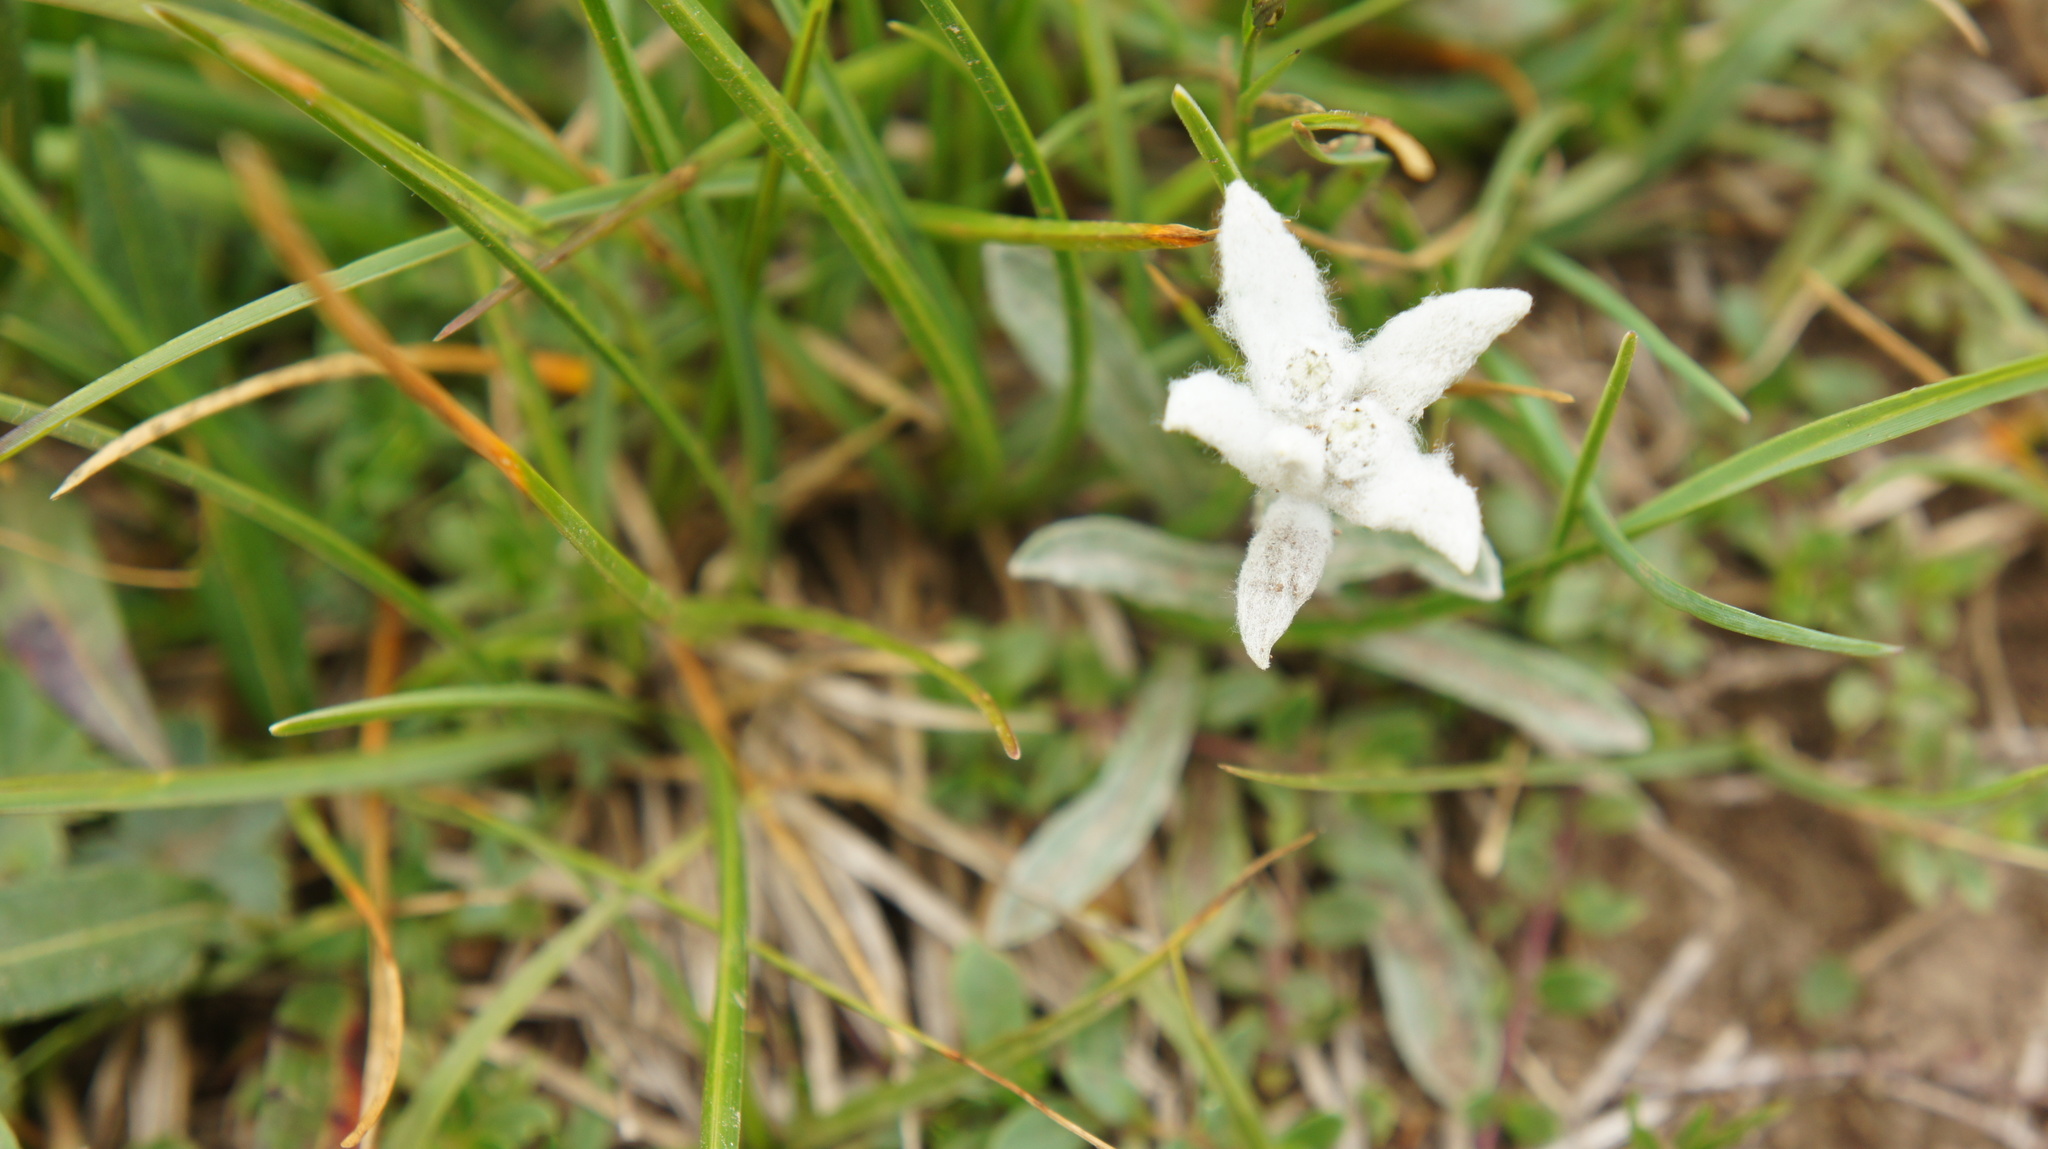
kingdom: Plantae
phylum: Tracheophyta
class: Magnoliopsida
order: Asterales
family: Asteraceae
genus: Leontopodium
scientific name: Leontopodium nivale
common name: Edelweiss
